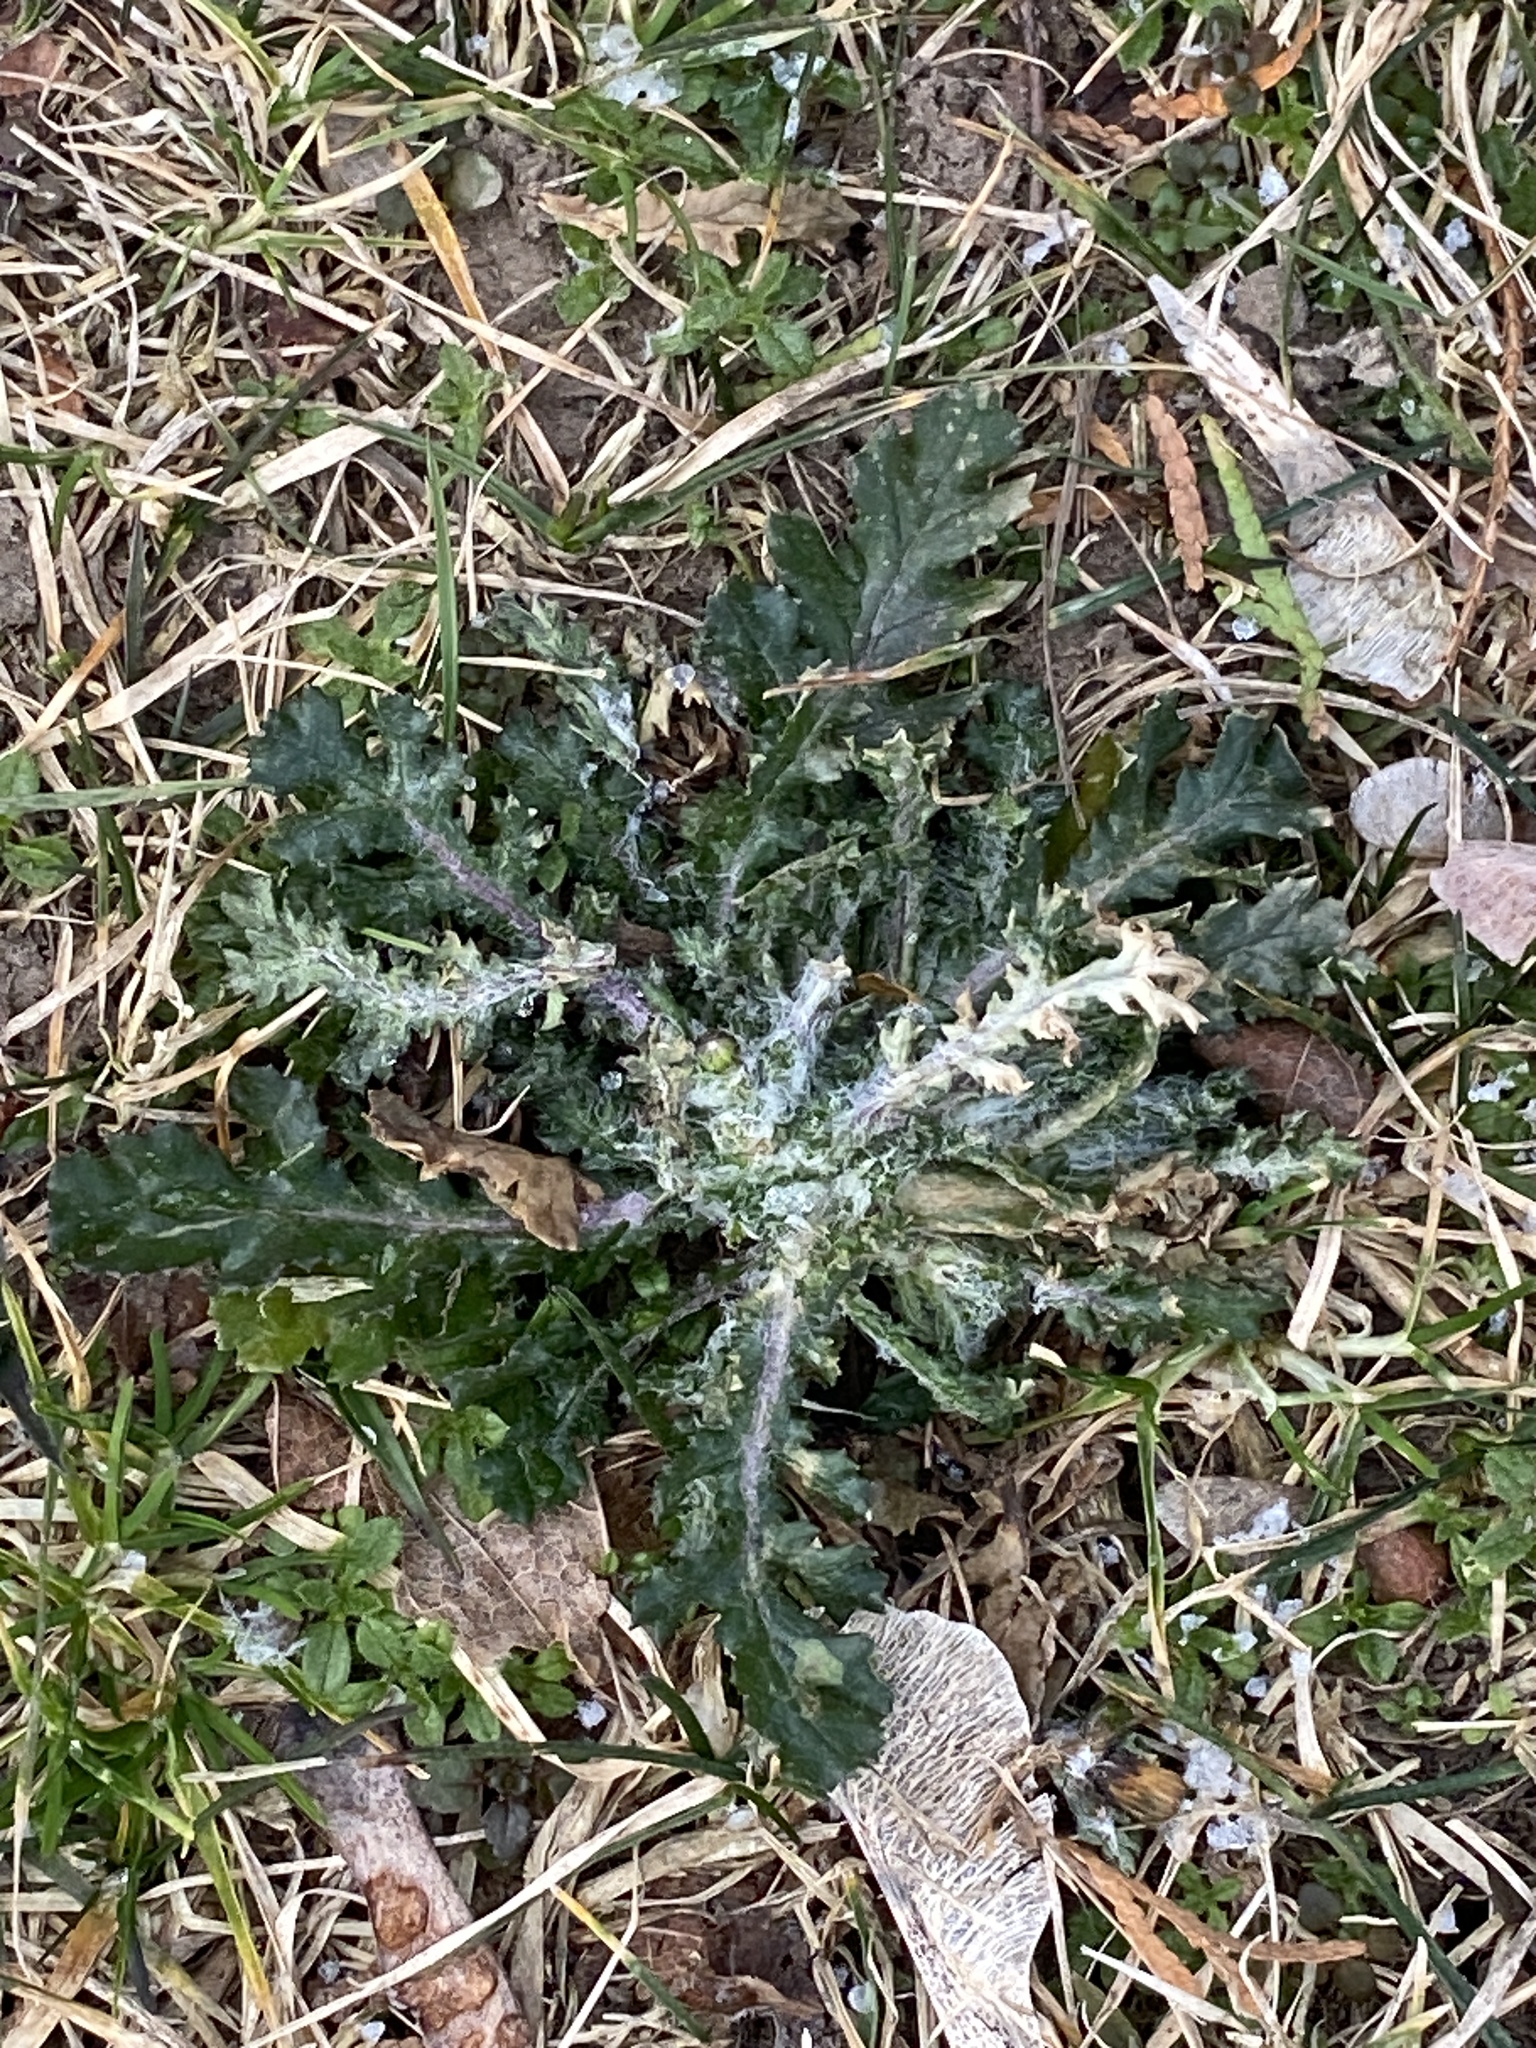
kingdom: Plantae
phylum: Tracheophyta
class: Magnoliopsida
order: Asterales
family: Asteraceae
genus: Senecio
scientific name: Senecio vulgaris
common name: Old-man-in-the-spring
